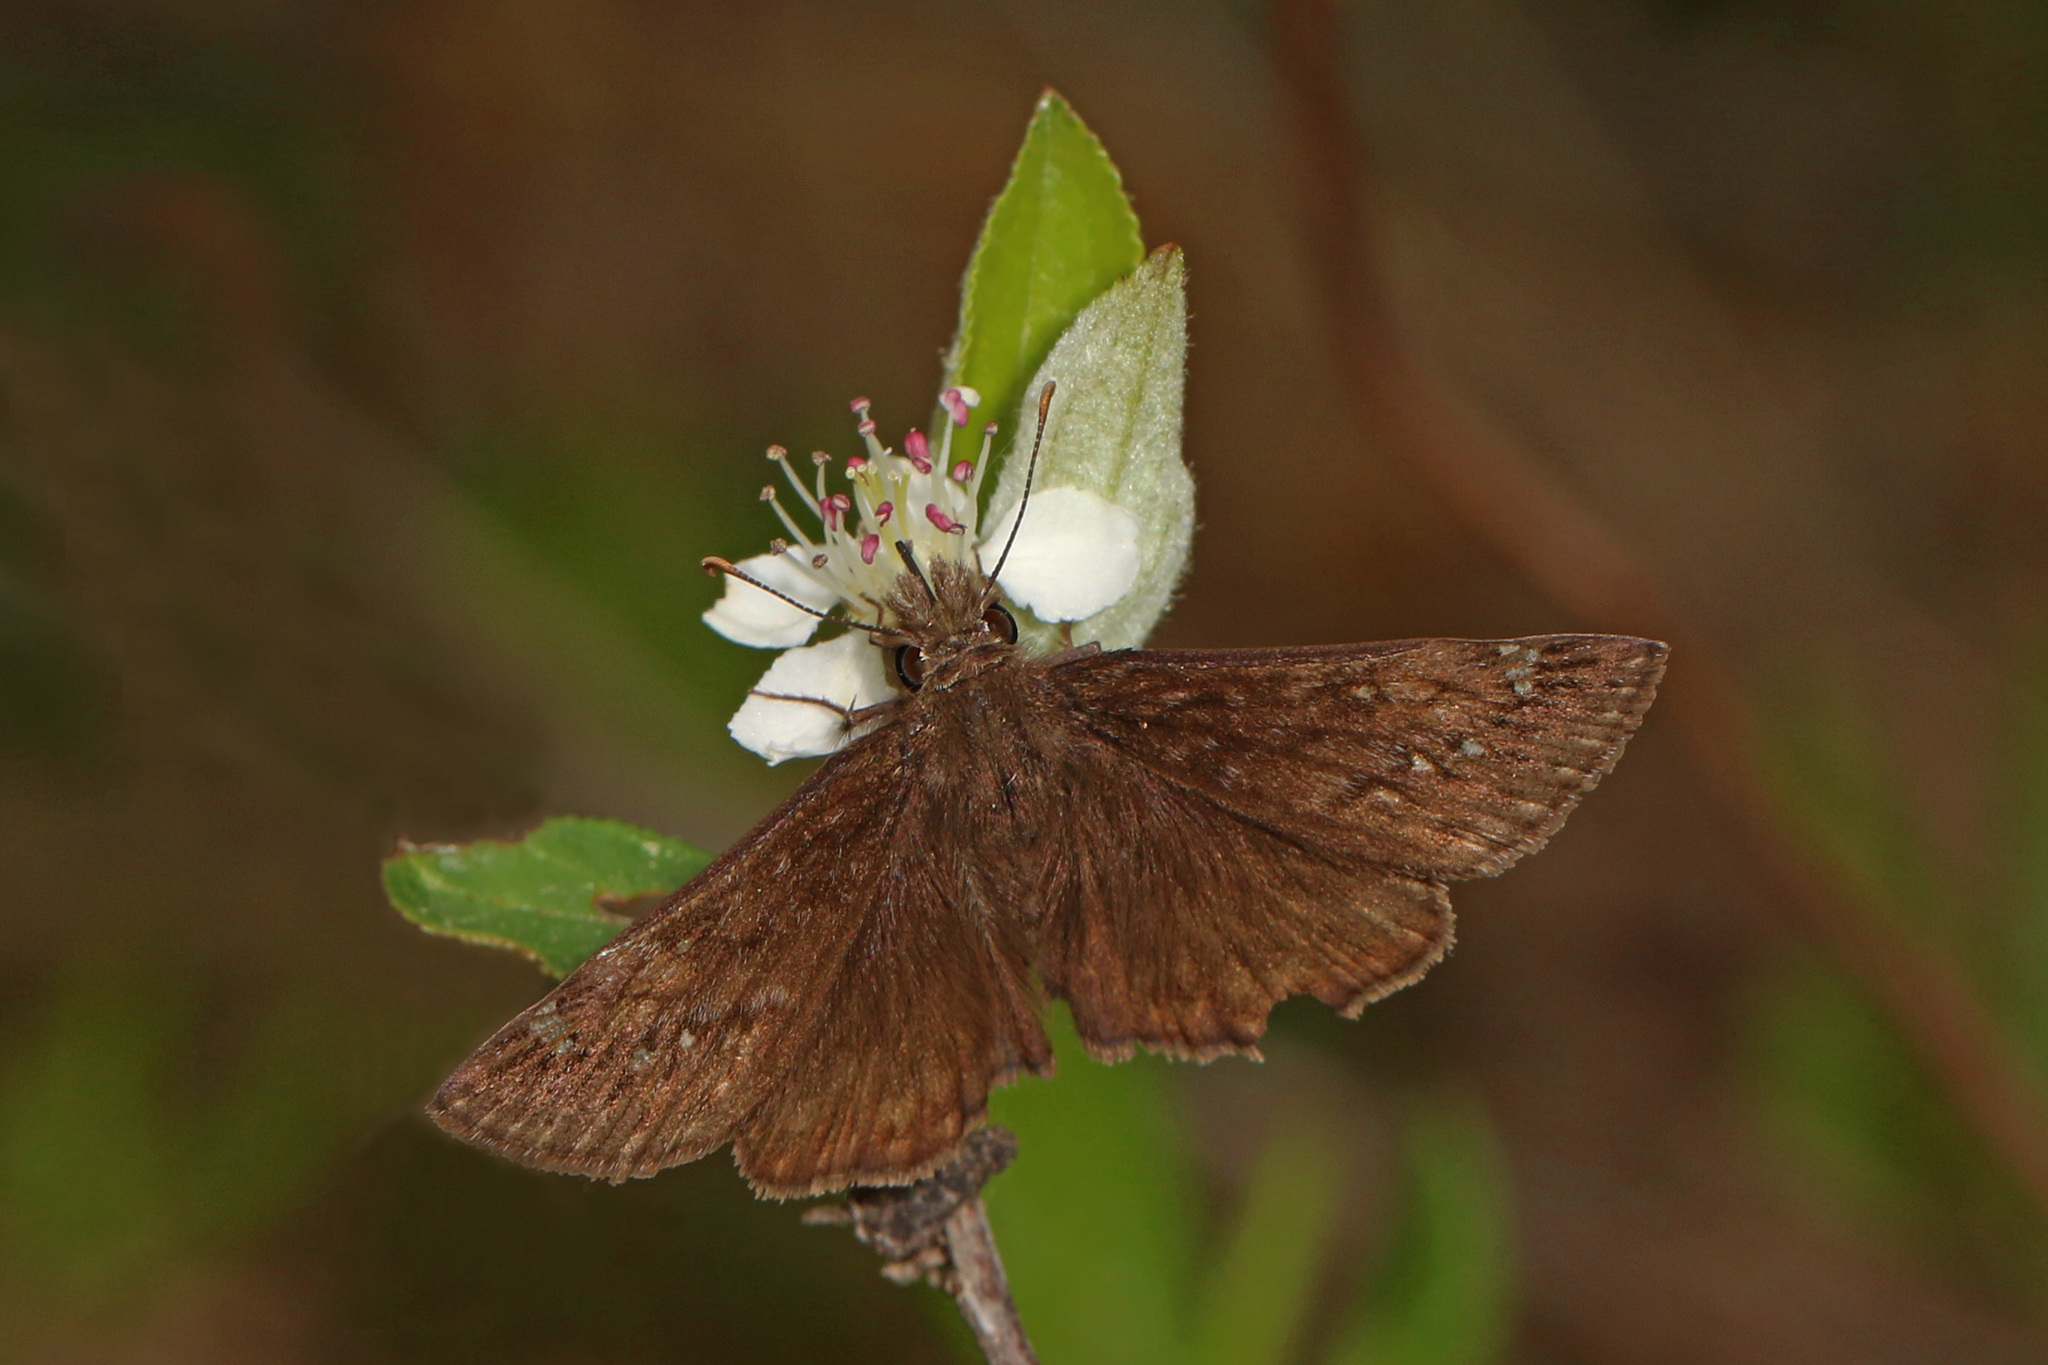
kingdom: Animalia
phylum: Arthropoda
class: Insecta
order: Lepidoptera
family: Hesperiidae
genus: Erynnis
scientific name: Erynnis juvenalis
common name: Juvenal's duskywing
